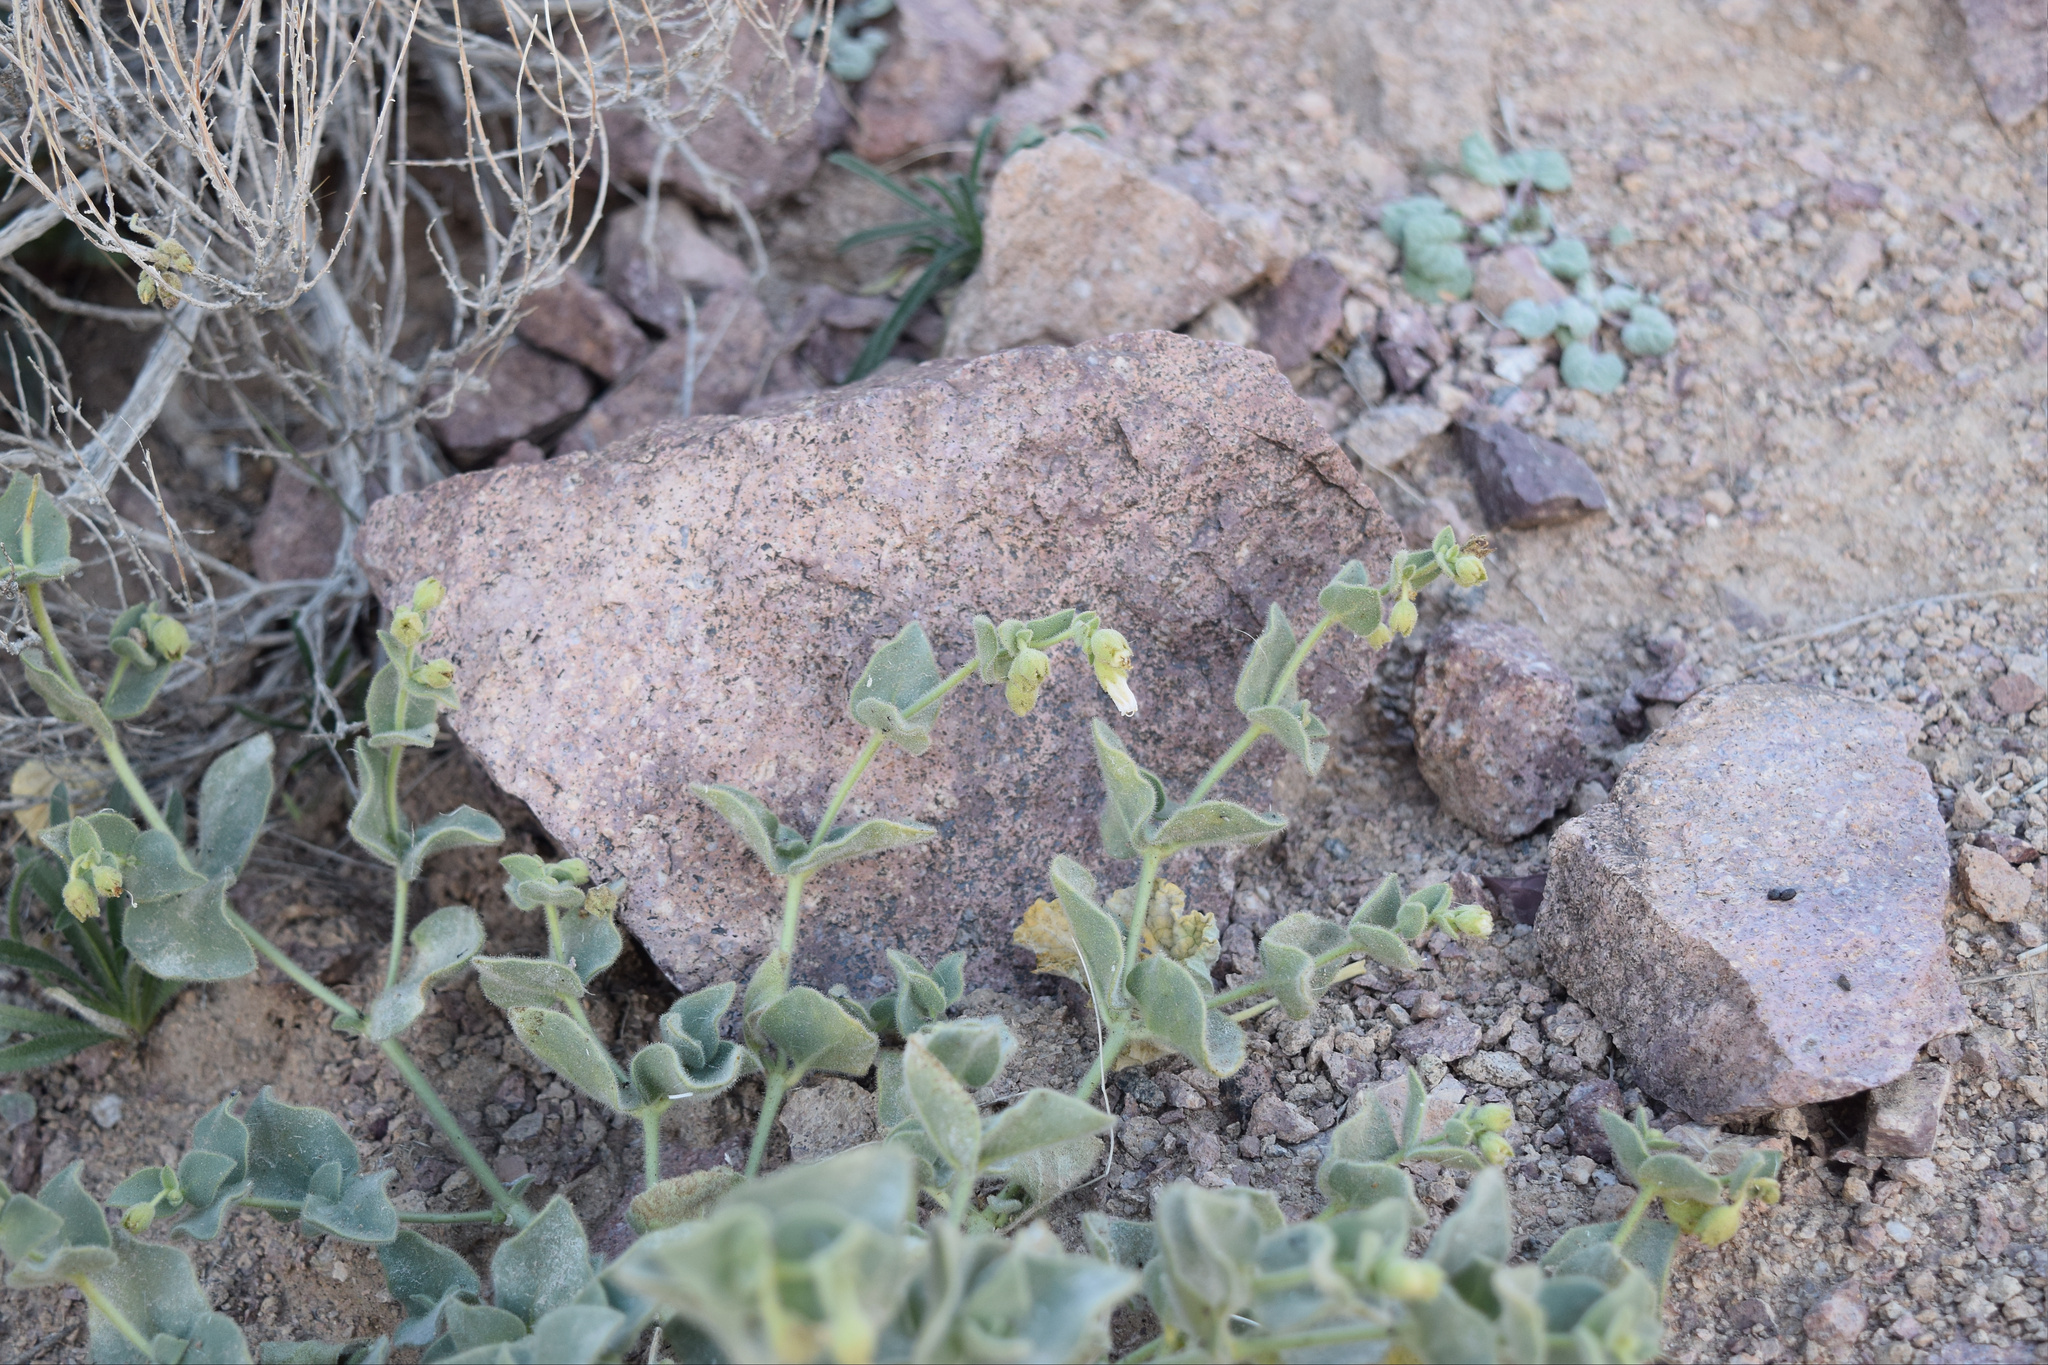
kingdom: Plantae
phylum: Tracheophyta
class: Magnoliopsida
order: Caryophyllales
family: Nyctaginaceae
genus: Mirabilis
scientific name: Mirabilis laevis
